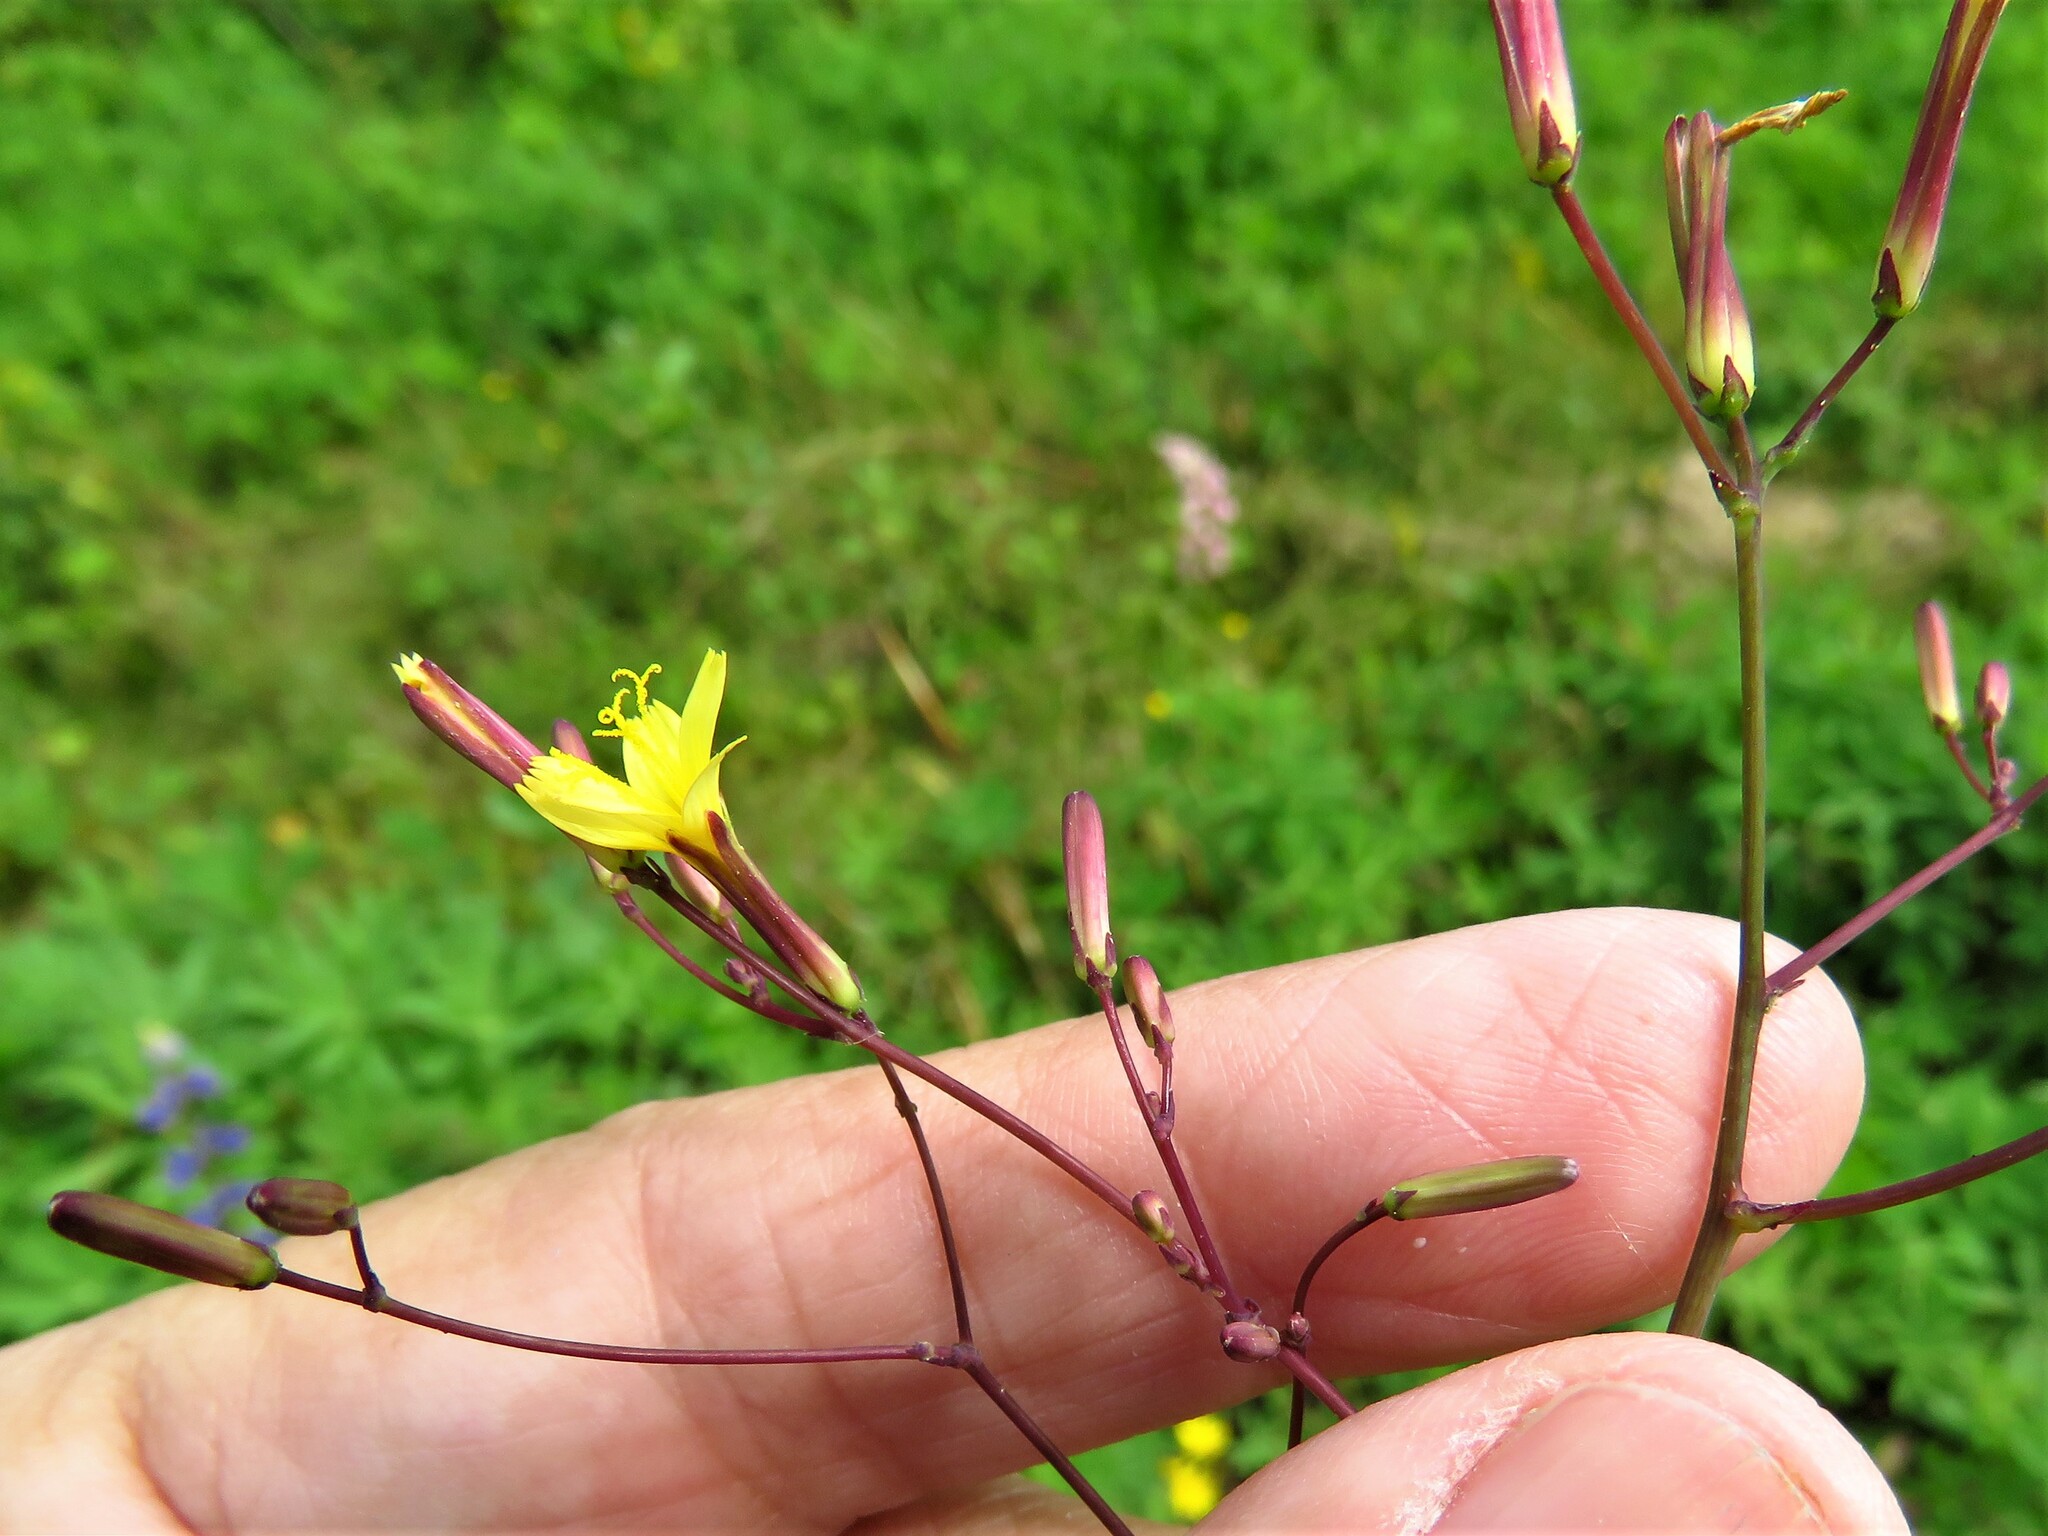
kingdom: Plantae
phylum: Tracheophyta
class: Magnoliopsida
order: Asterales
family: Asteraceae
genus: Mycelis
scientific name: Mycelis muralis
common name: Wall lettuce
